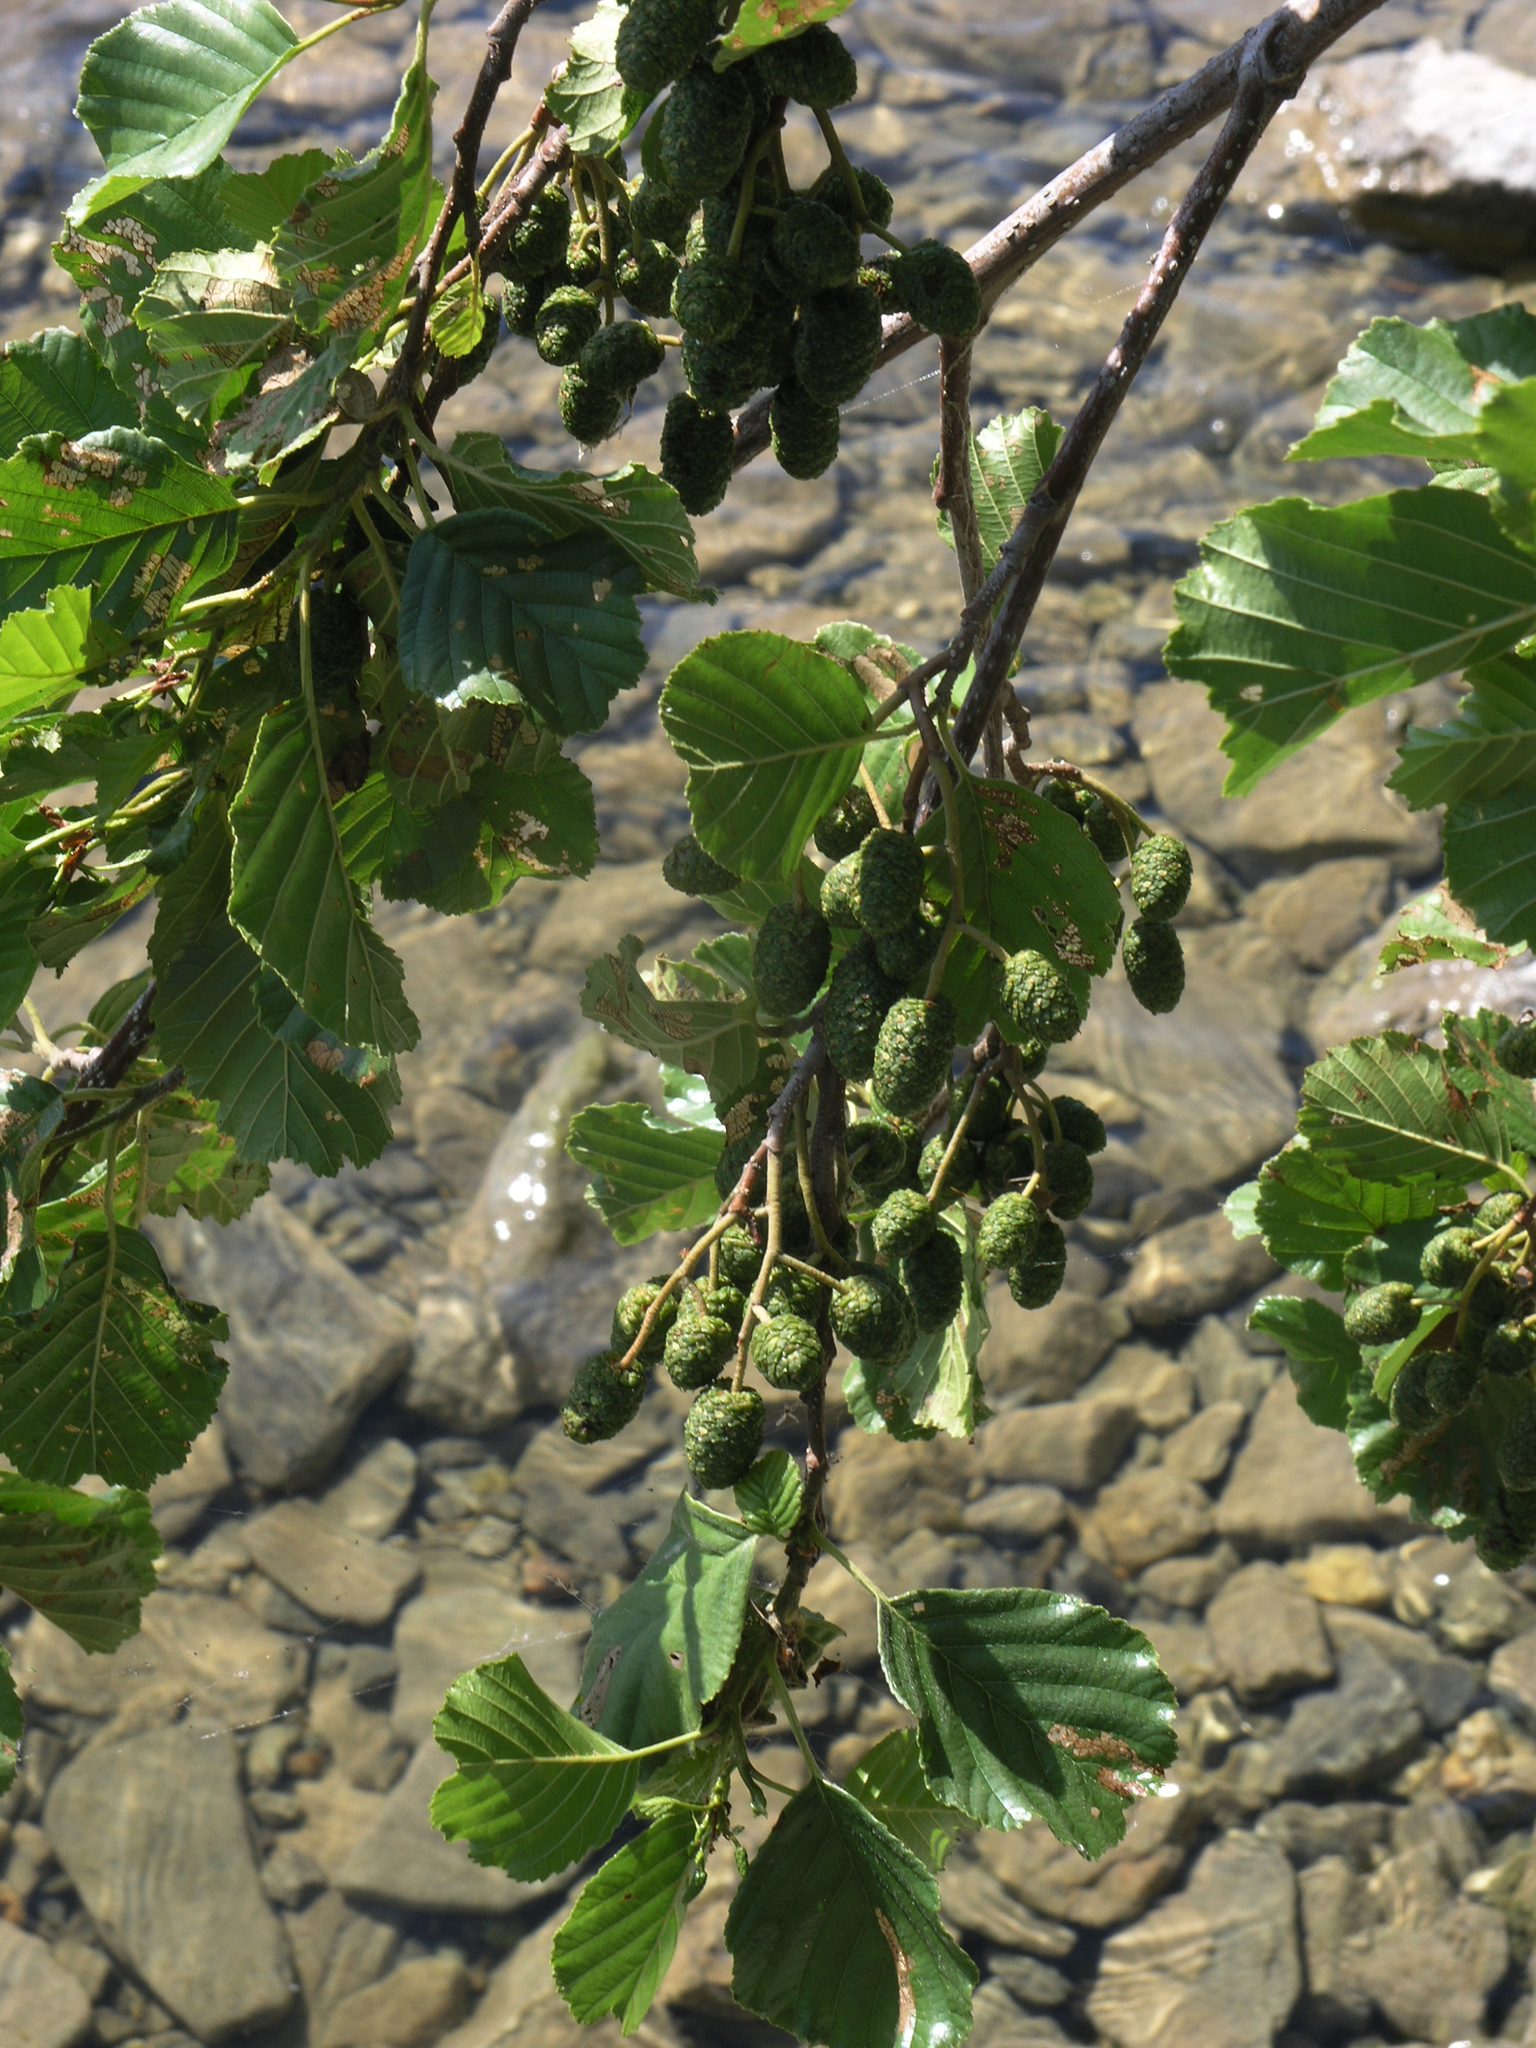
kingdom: Plantae
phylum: Tracheophyta
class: Magnoliopsida
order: Fagales
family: Betulaceae
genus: Alnus
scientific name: Alnus glutinosa
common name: Black alder
